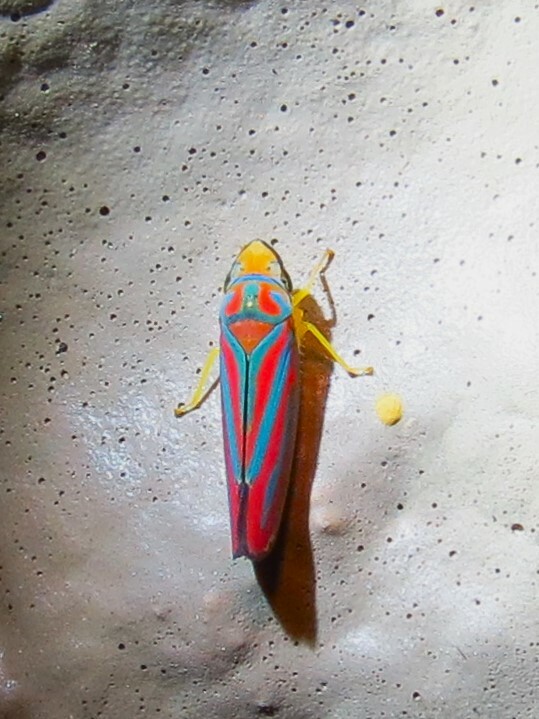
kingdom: Animalia
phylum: Arthropoda
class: Insecta
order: Hemiptera
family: Cicadellidae
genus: Graphocephala
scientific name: Graphocephala coccinea
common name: Candy-striped leafhopper
